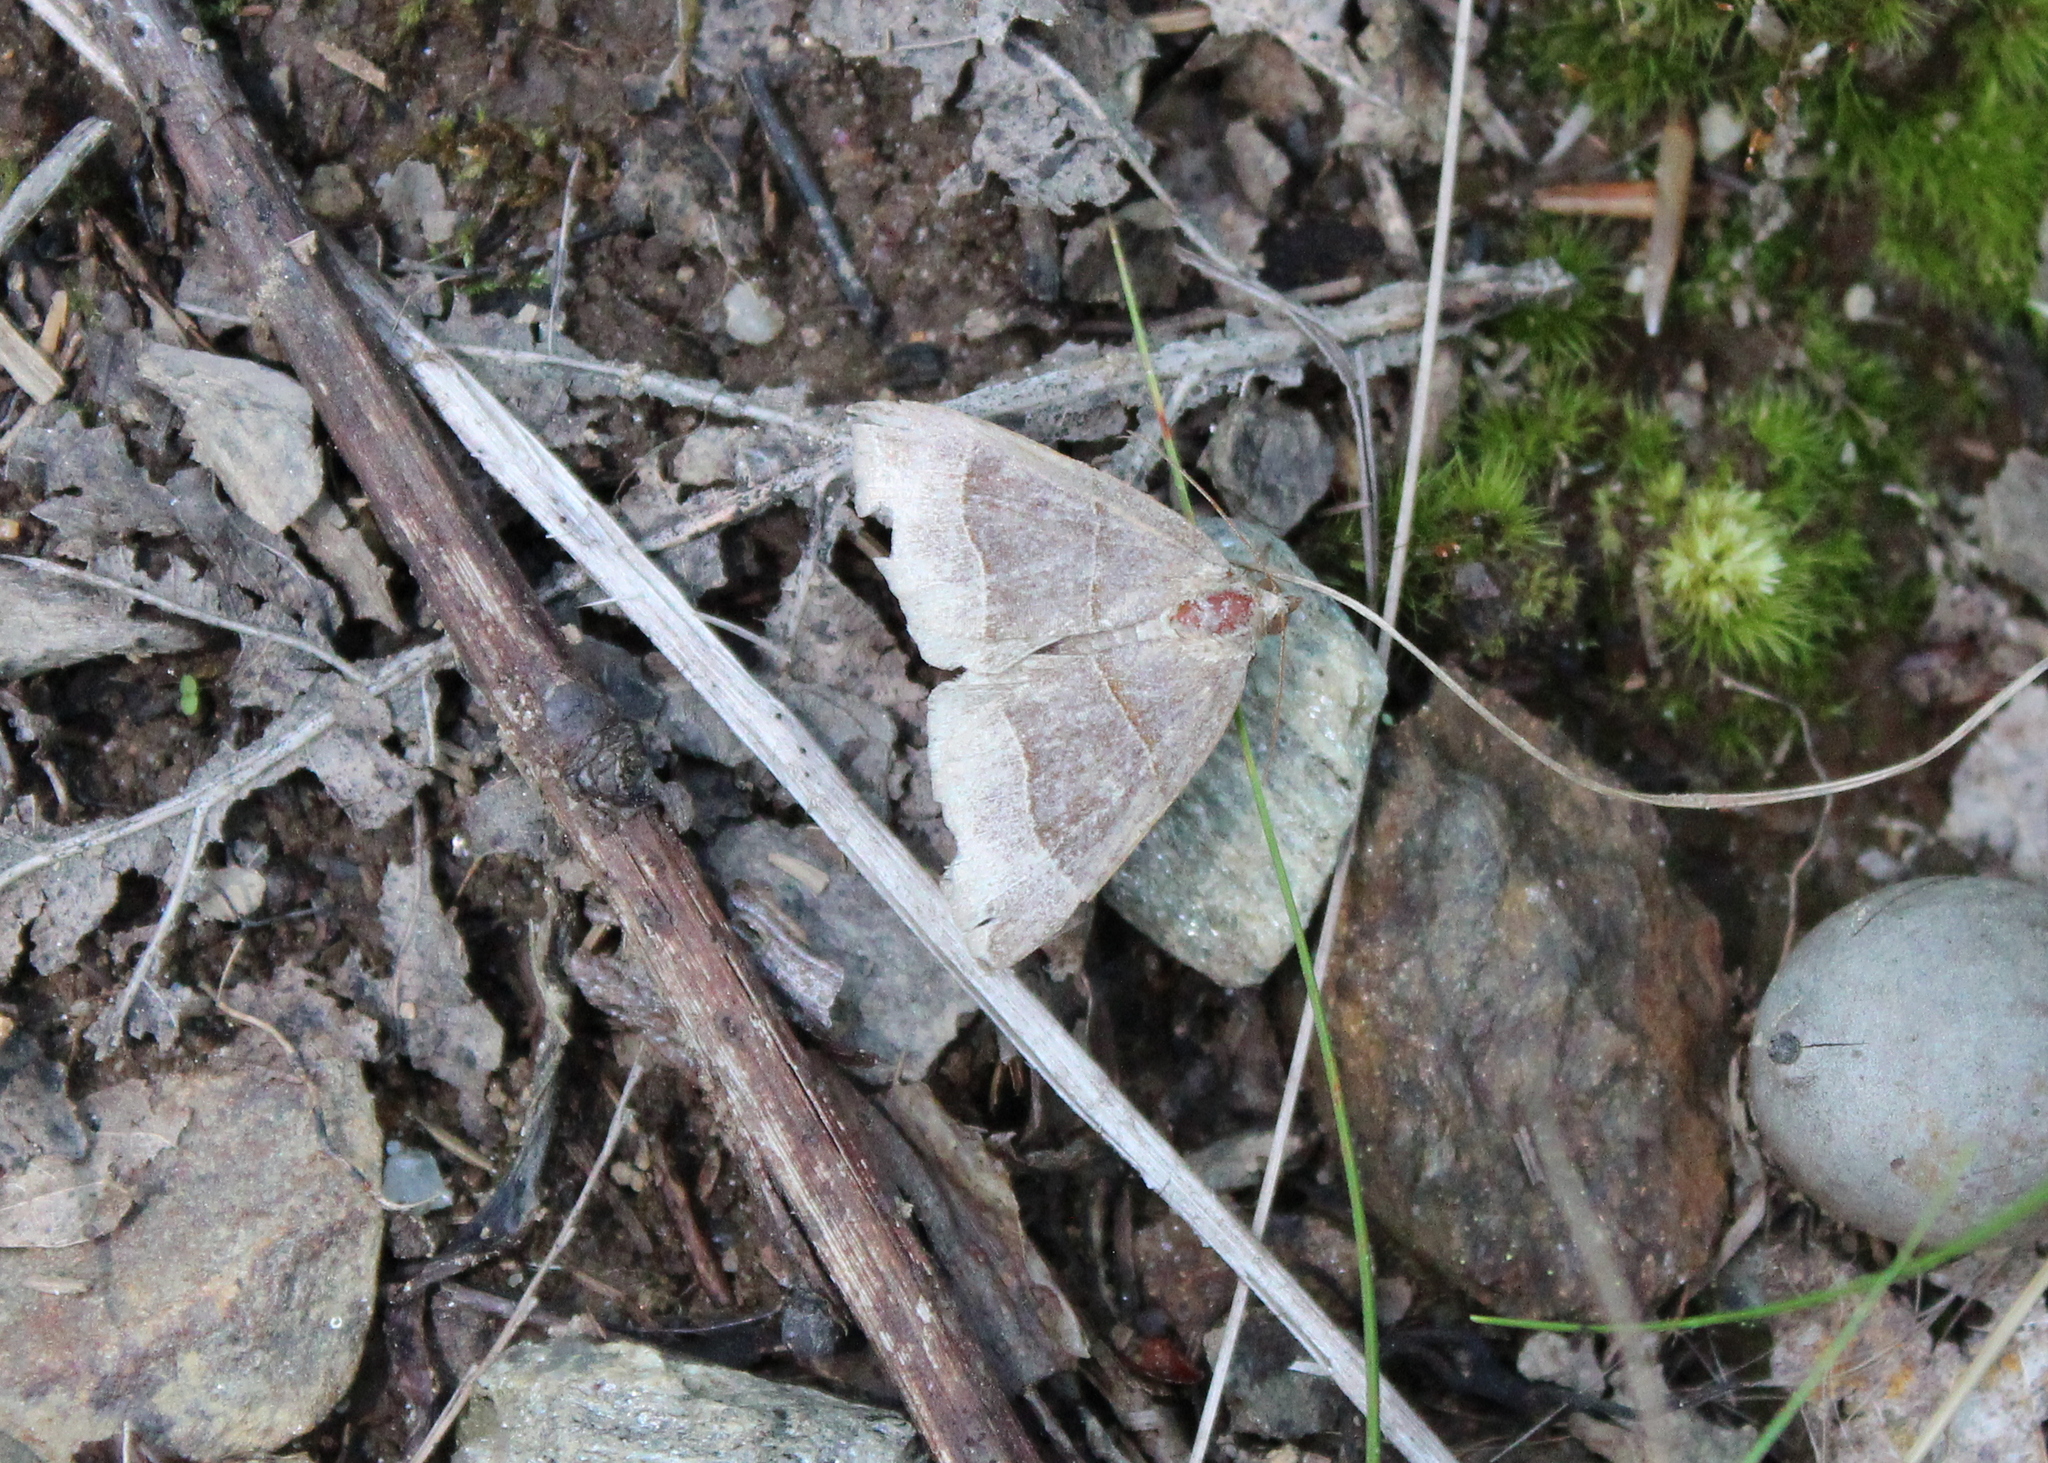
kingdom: Animalia
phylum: Arthropoda
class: Insecta
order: Lepidoptera
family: Erebidae
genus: Parallelia
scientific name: Parallelia bistriaris
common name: Maple looper moth
